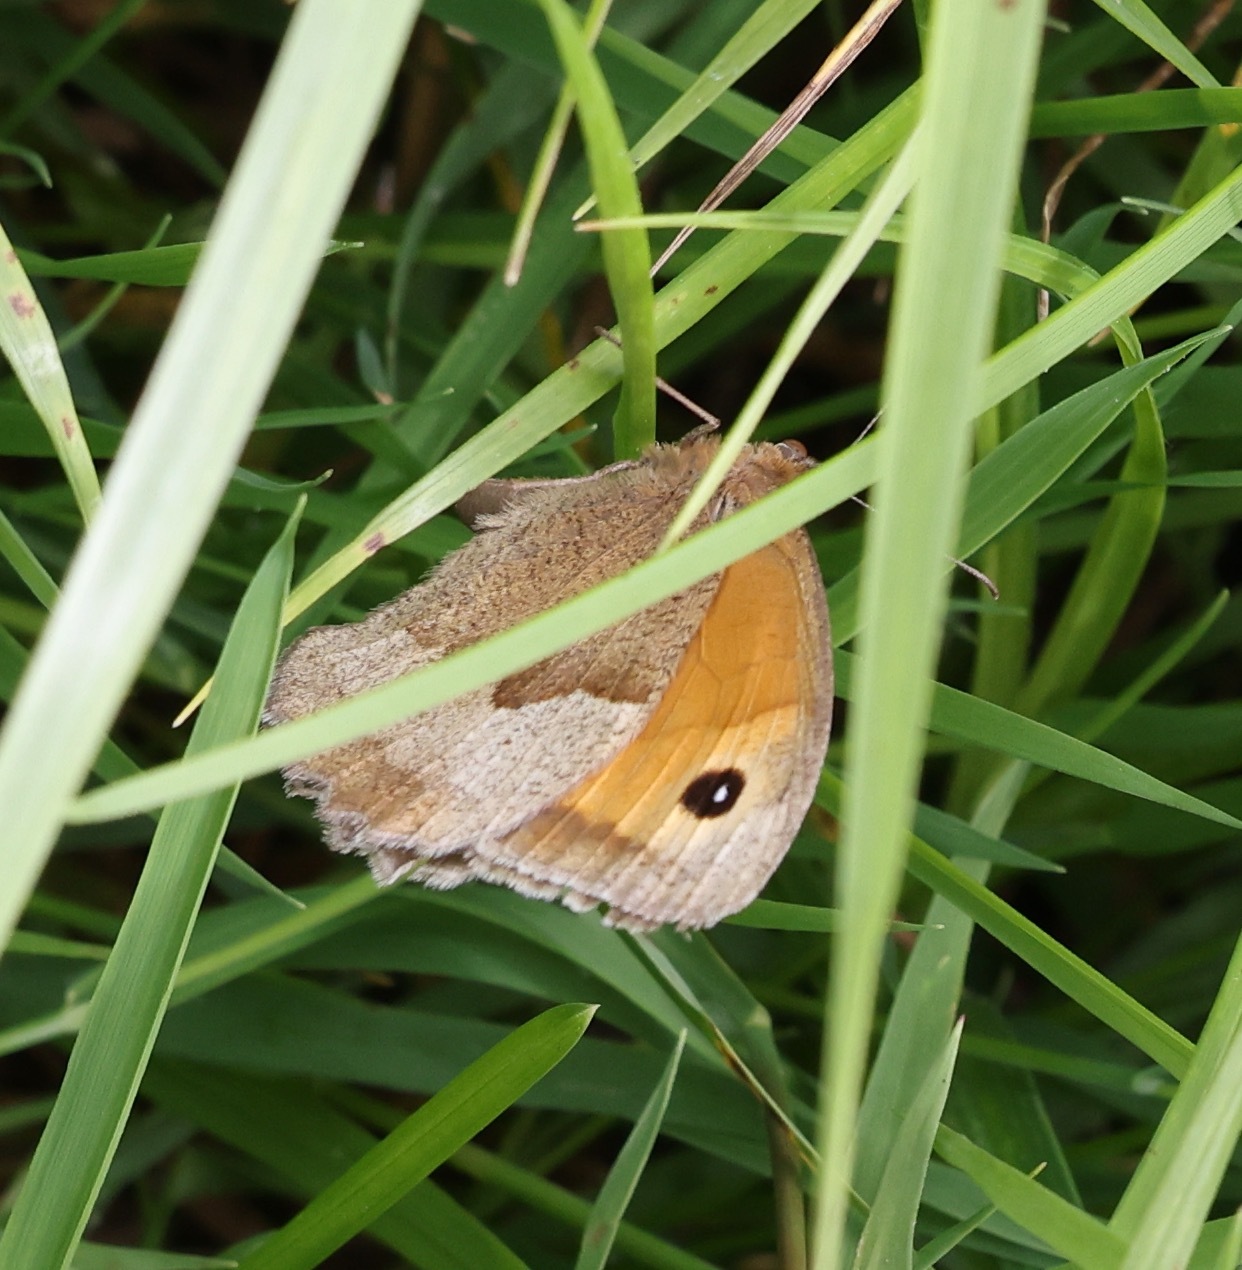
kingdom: Animalia
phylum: Arthropoda
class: Insecta
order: Lepidoptera
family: Nymphalidae
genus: Maniola
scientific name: Maniola jurtina
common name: Meadow brown
